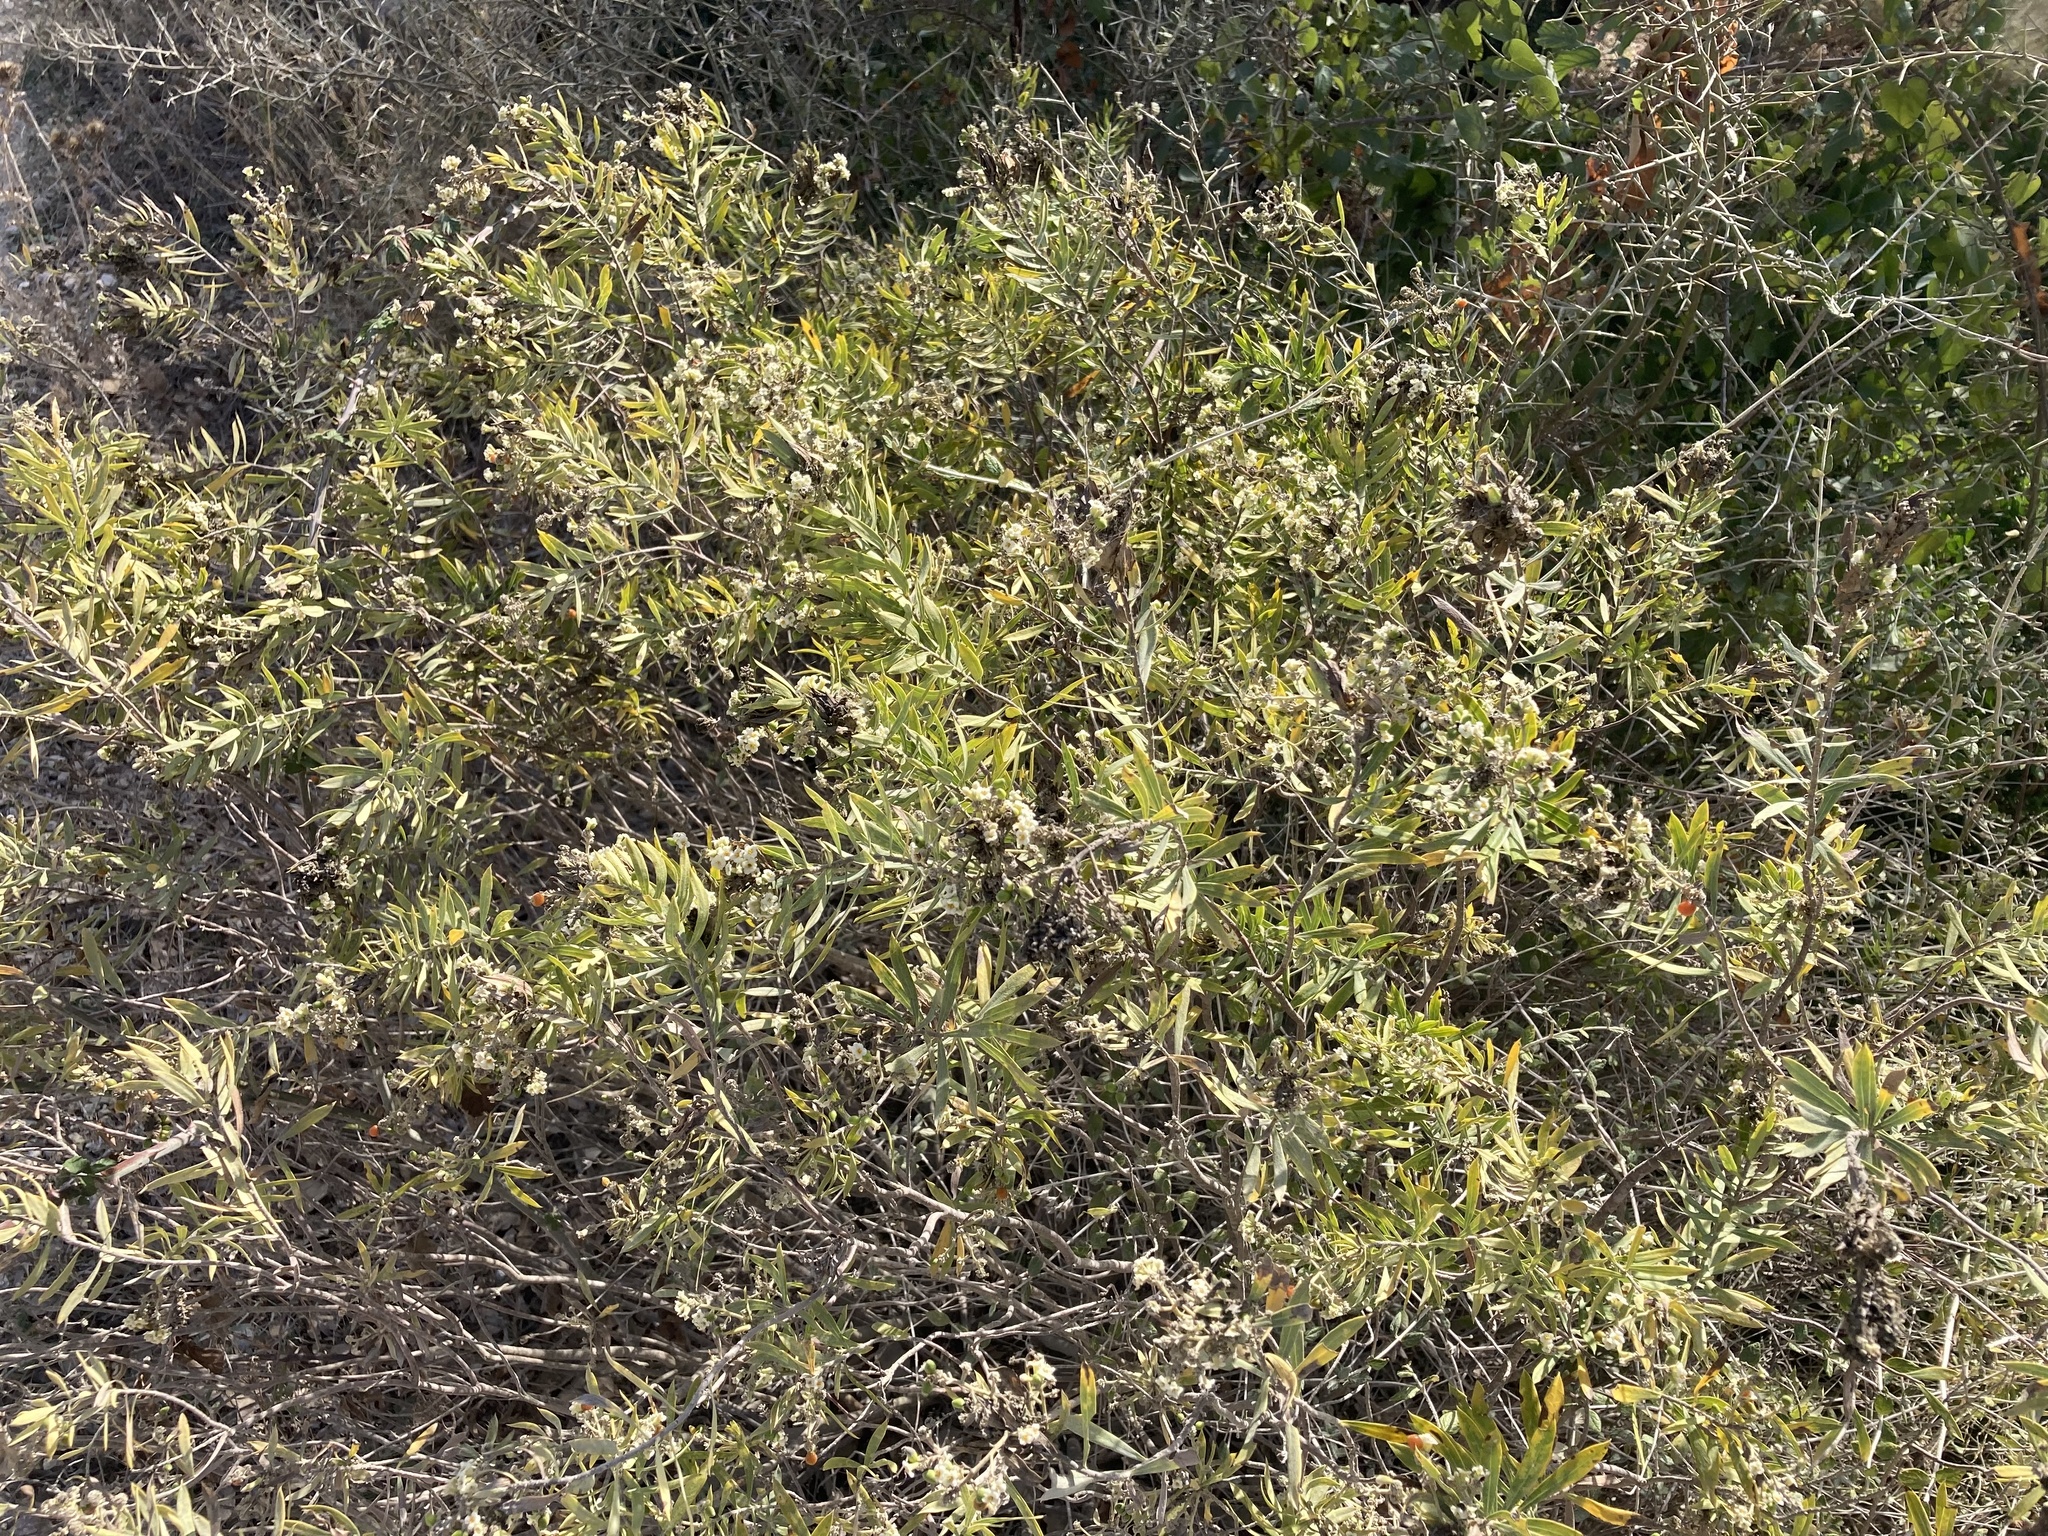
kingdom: Plantae
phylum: Tracheophyta
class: Magnoliopsida
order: Malvales
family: Thymelaeaceae
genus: Daphne
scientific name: Daphne gnidium
